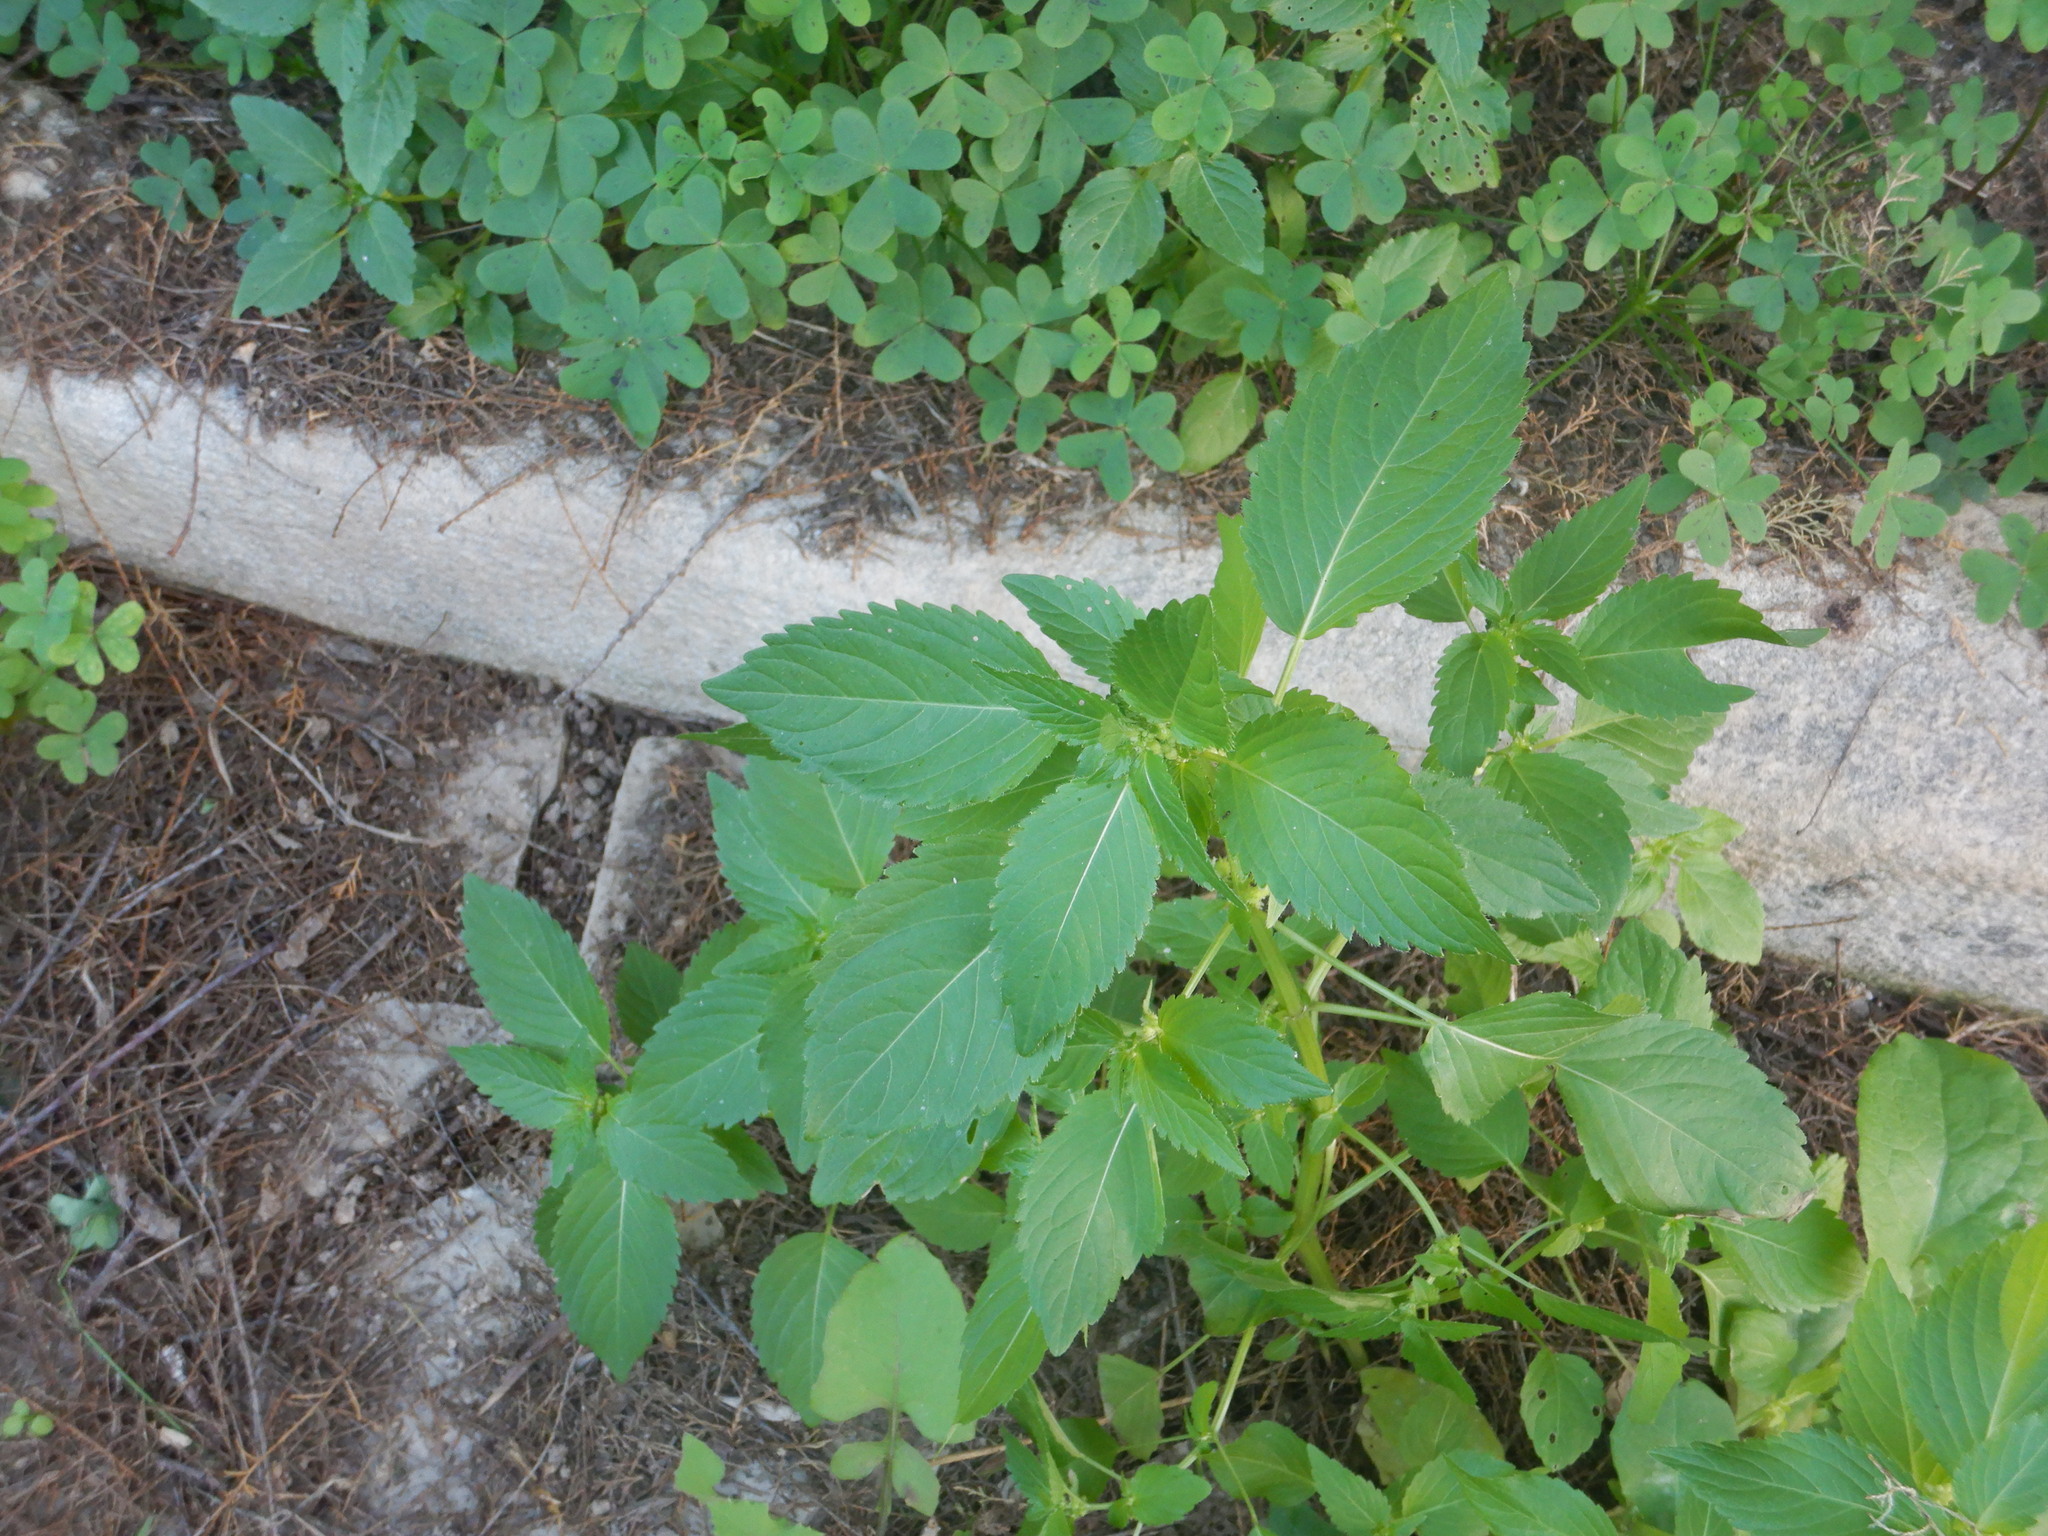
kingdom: Plantae
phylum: Tracheophyta
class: Magnoliopsida
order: Malpighiales
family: Euphorbiaceae
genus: Mercurialis
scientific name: Mercurialis annua
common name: Annual mercury
